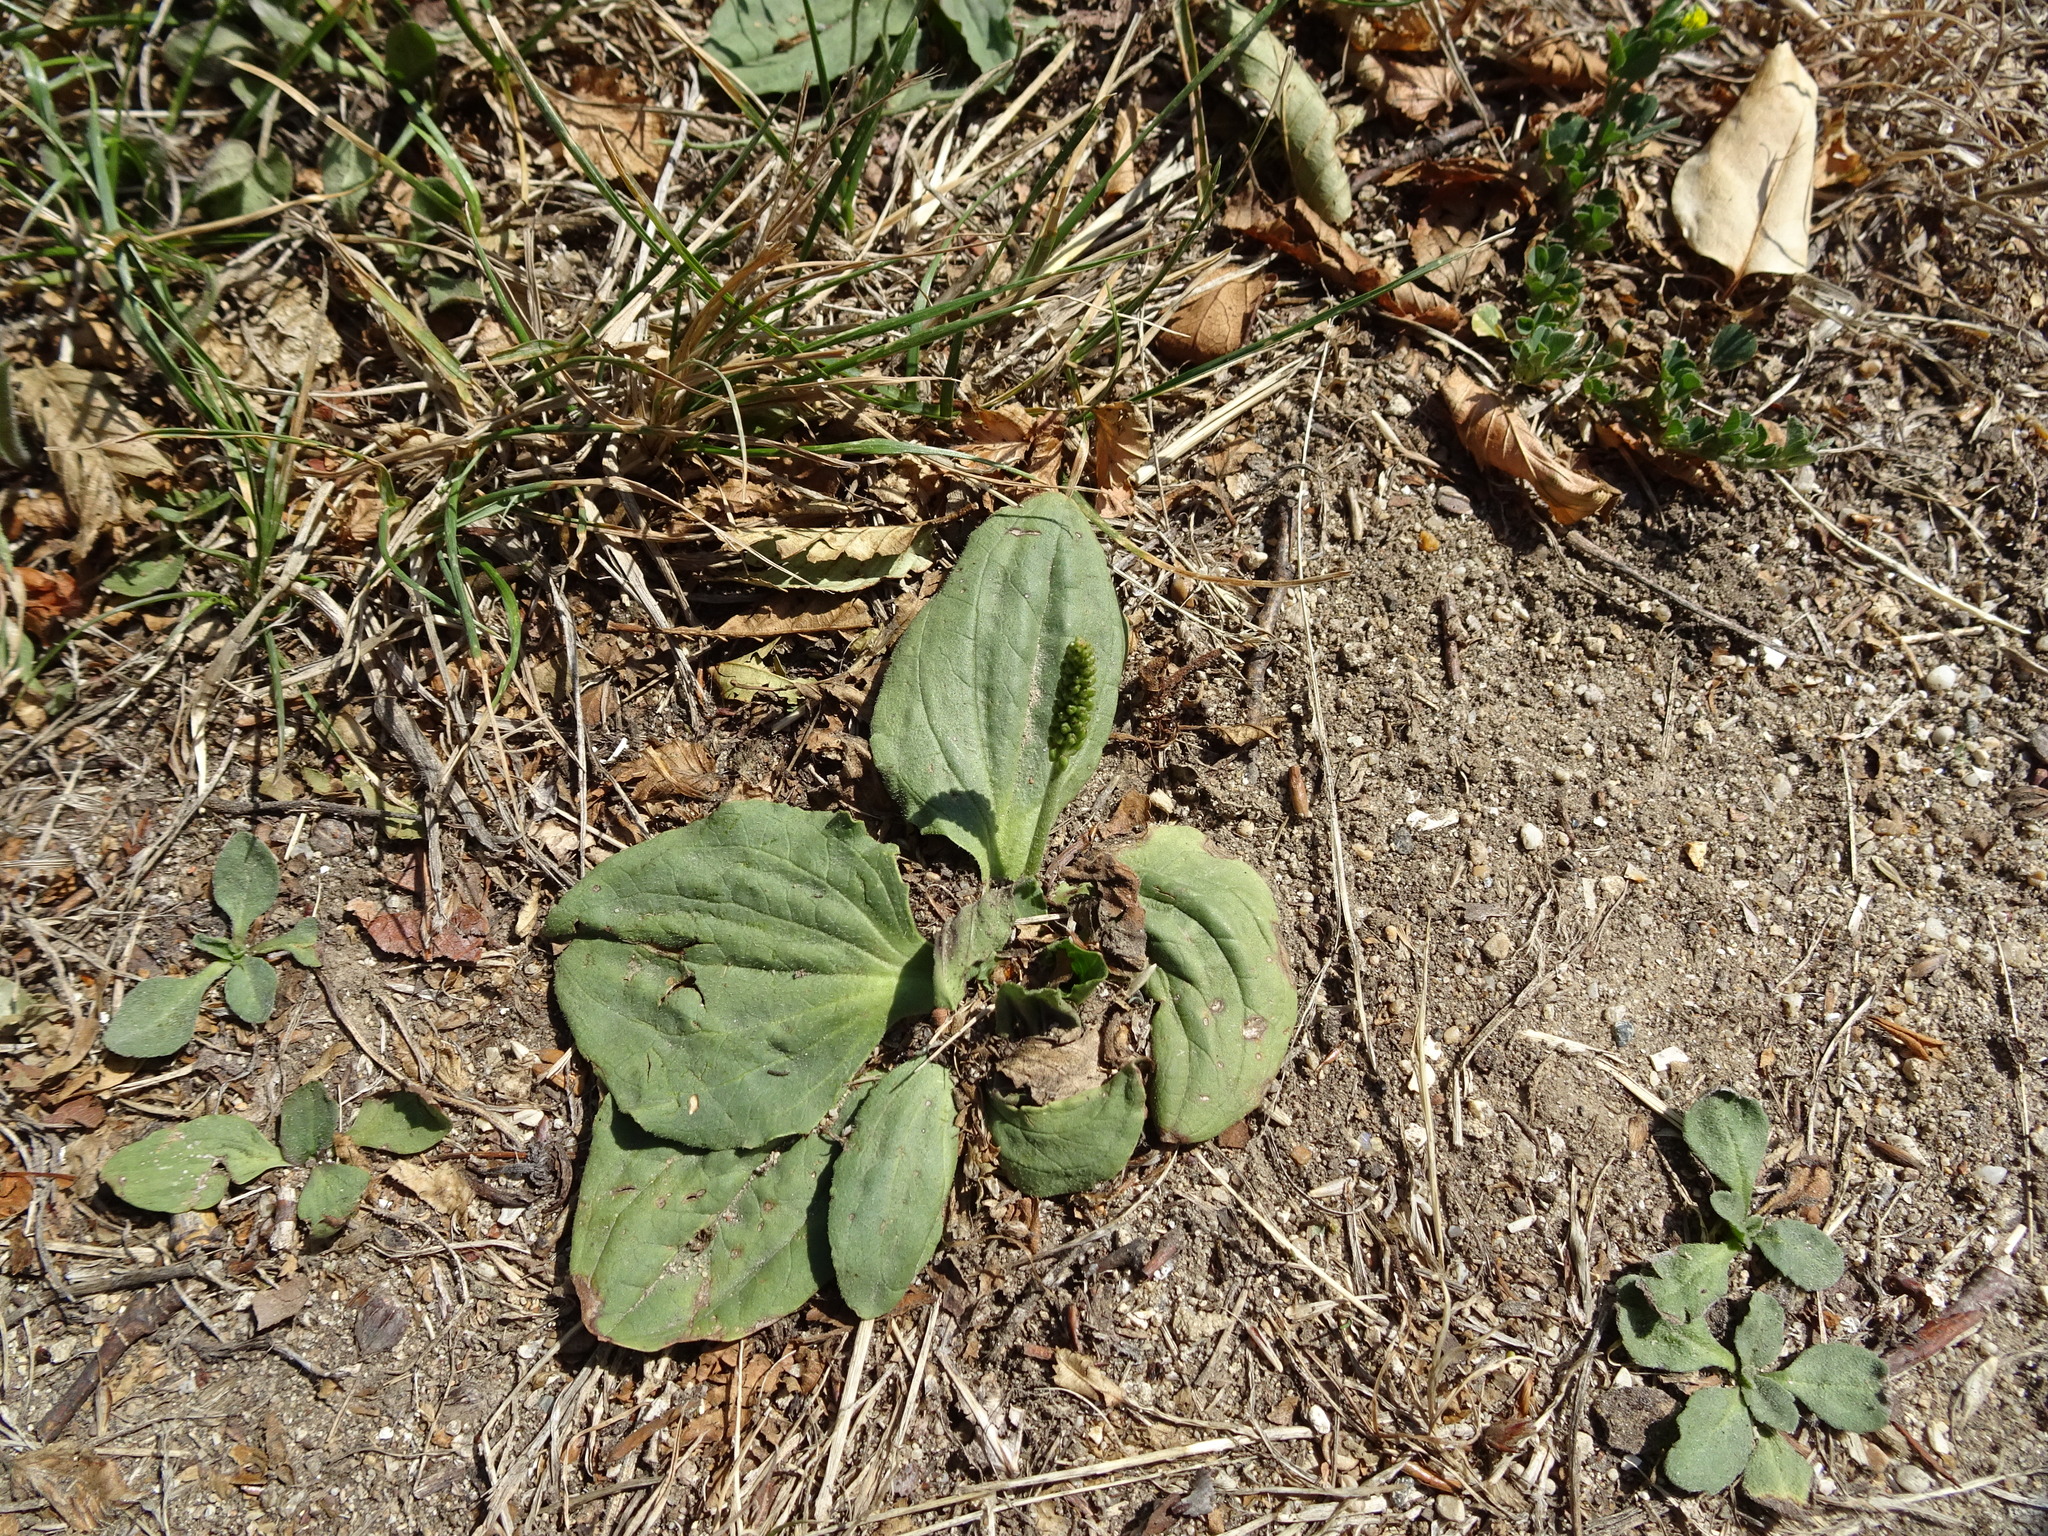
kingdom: Plantae
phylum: Tracheophyta
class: Magnoliopsida
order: Lamiales
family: Plantaginaceae
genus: Plantago
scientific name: Plantago major
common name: Common plantain
